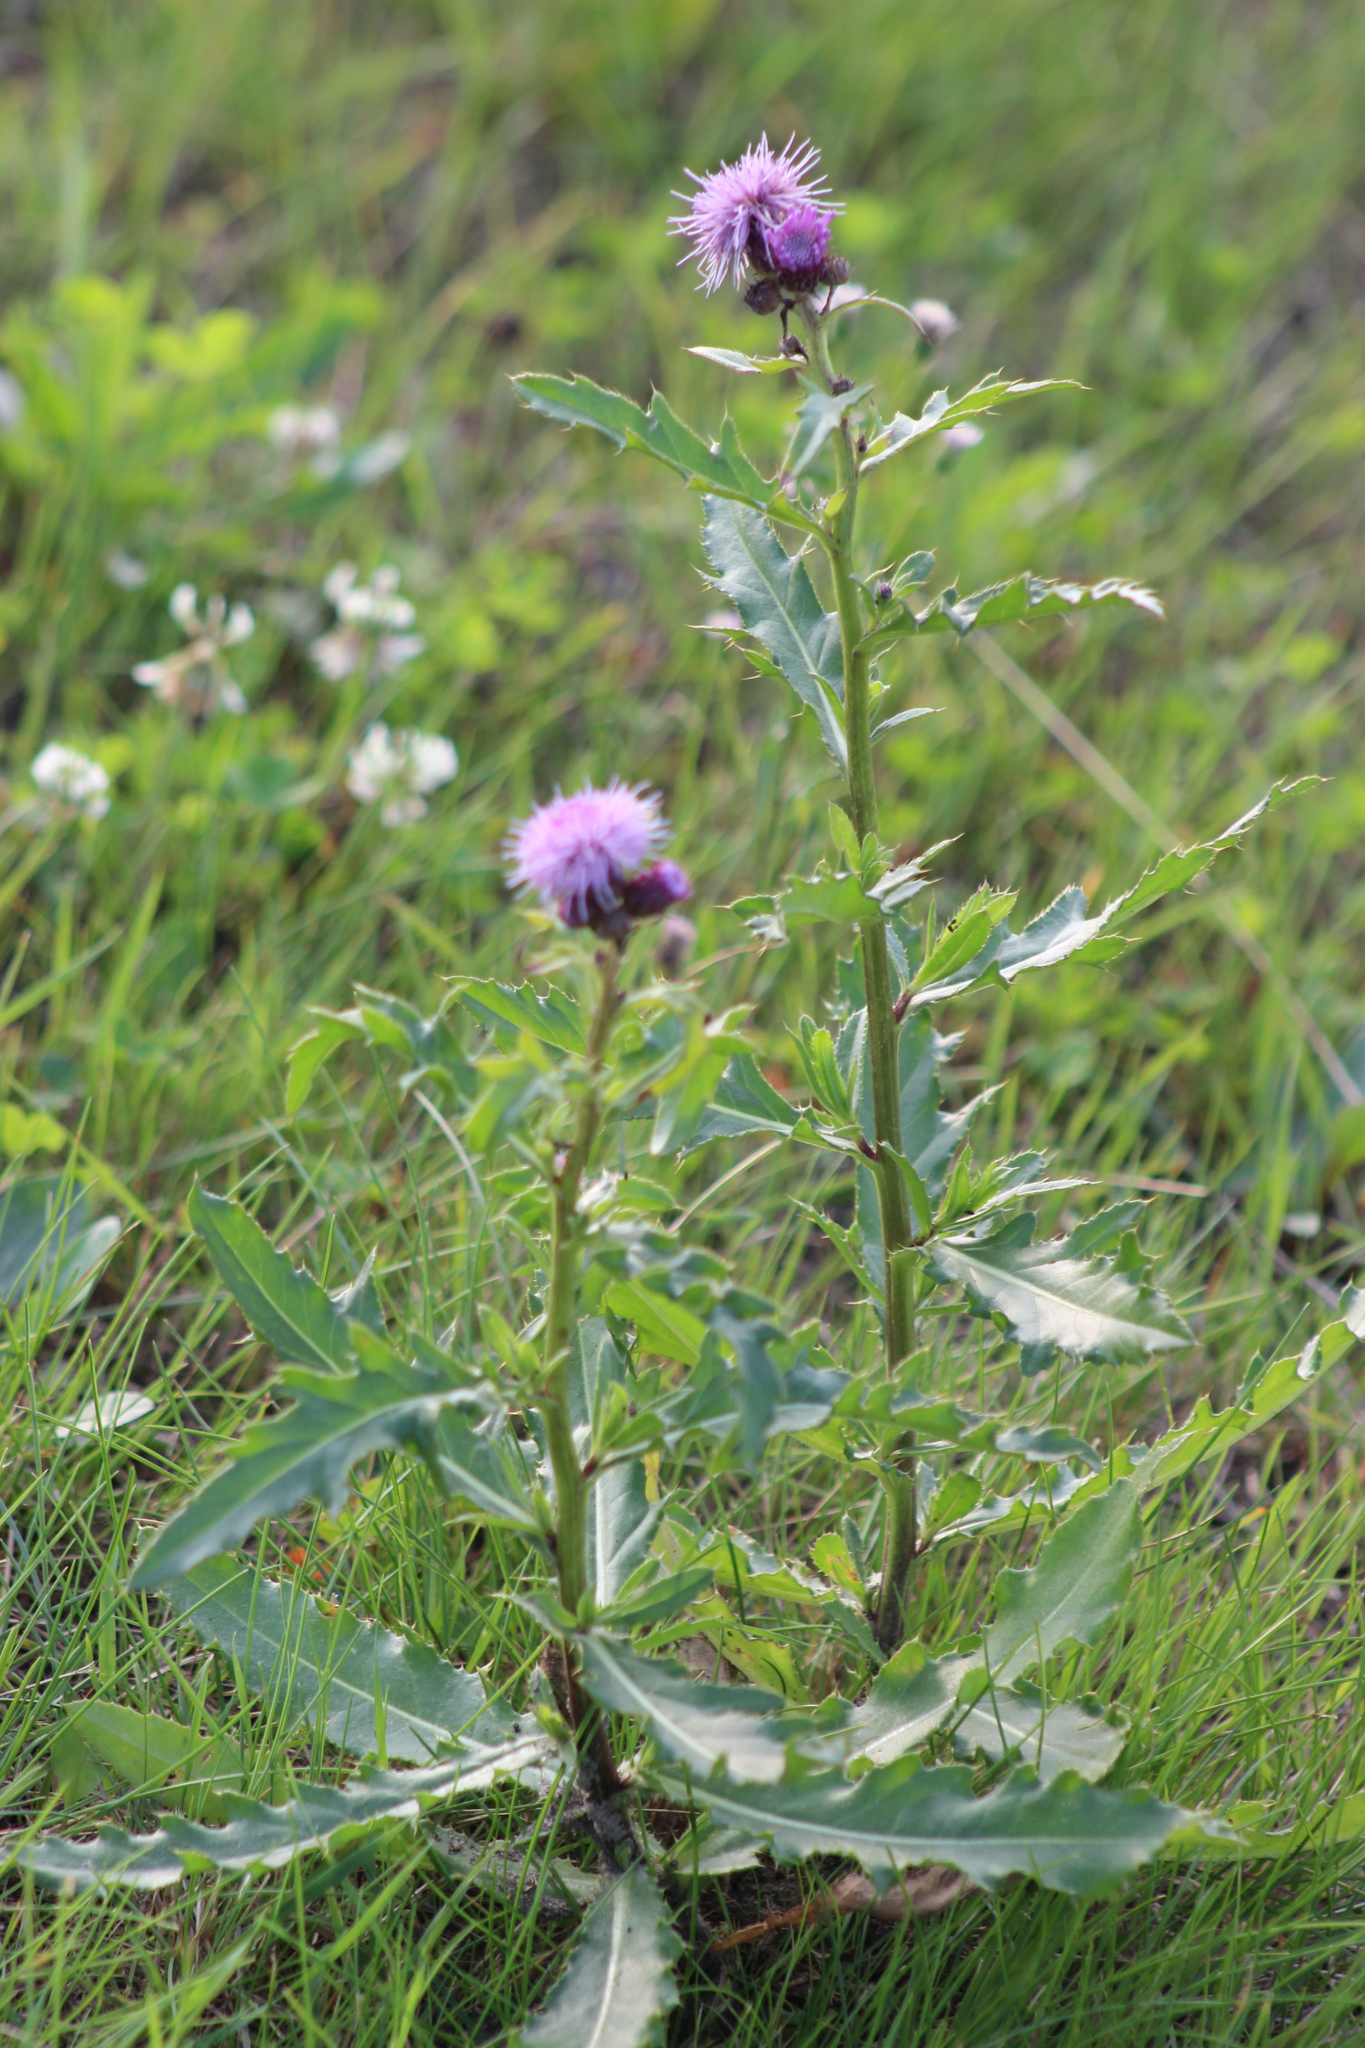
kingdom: Plantae
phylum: Tracheophyta
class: Magnoliopsida
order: Asterales
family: Asteraceae
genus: Cirsium
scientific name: Cirsium arvense
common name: Creeping thistle
